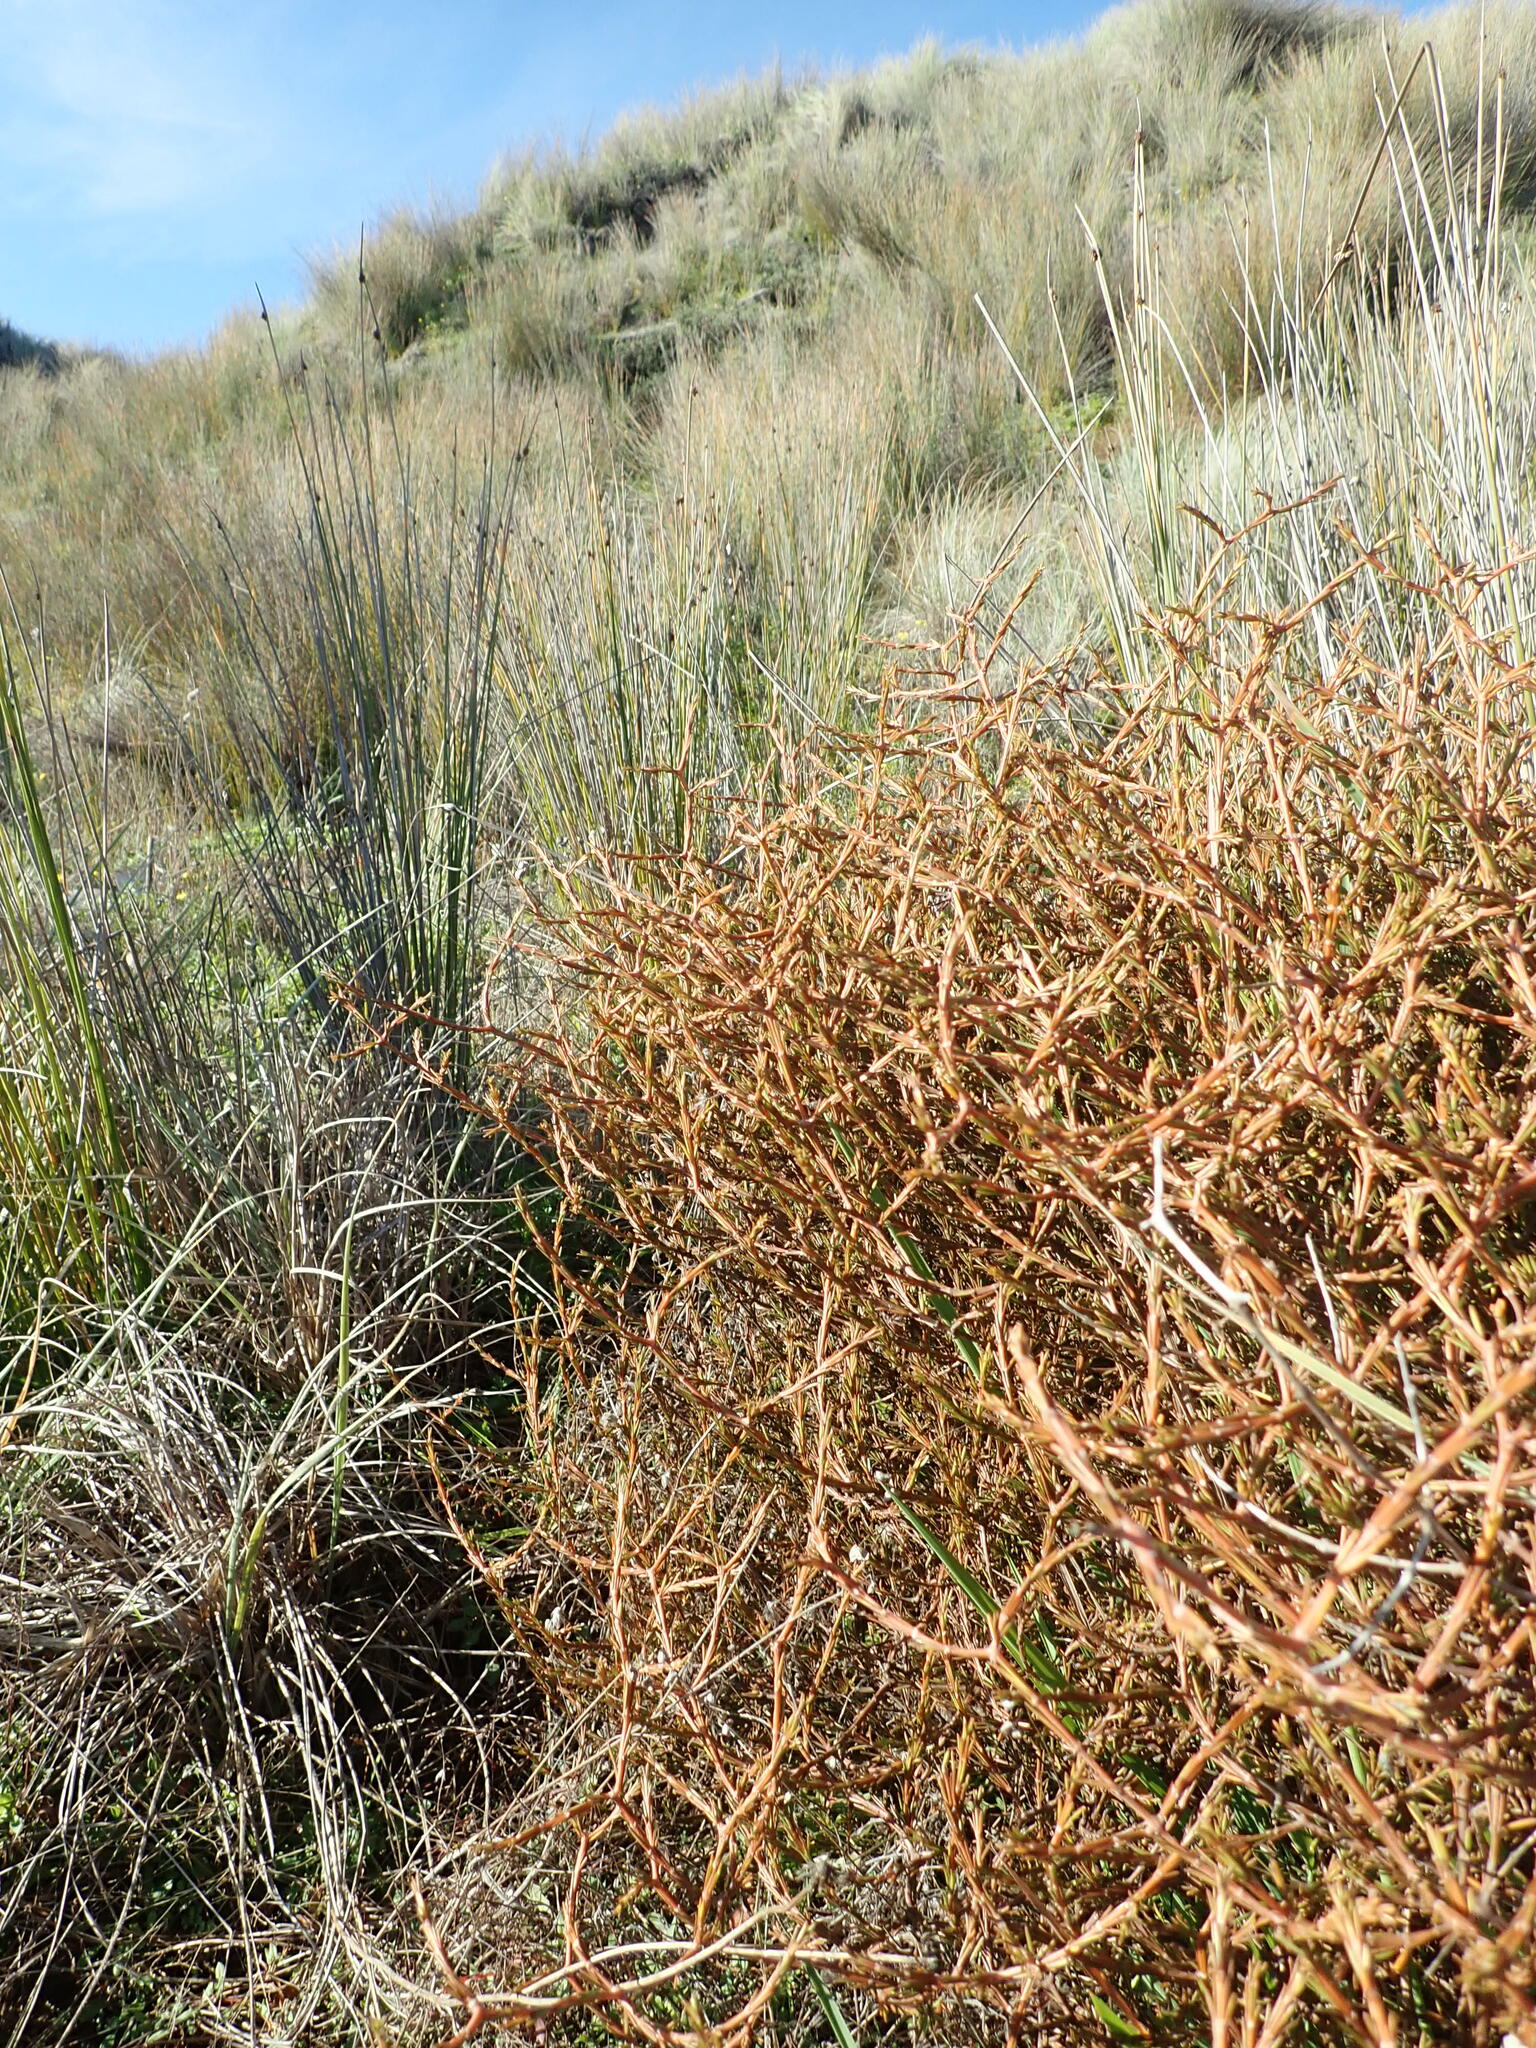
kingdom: Plantae
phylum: Tracheophyta
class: Magnoliopsida
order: Gentianales
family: Rubiaceae
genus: Coprosma
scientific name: Coprosma acerosa
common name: Sand coprosma
